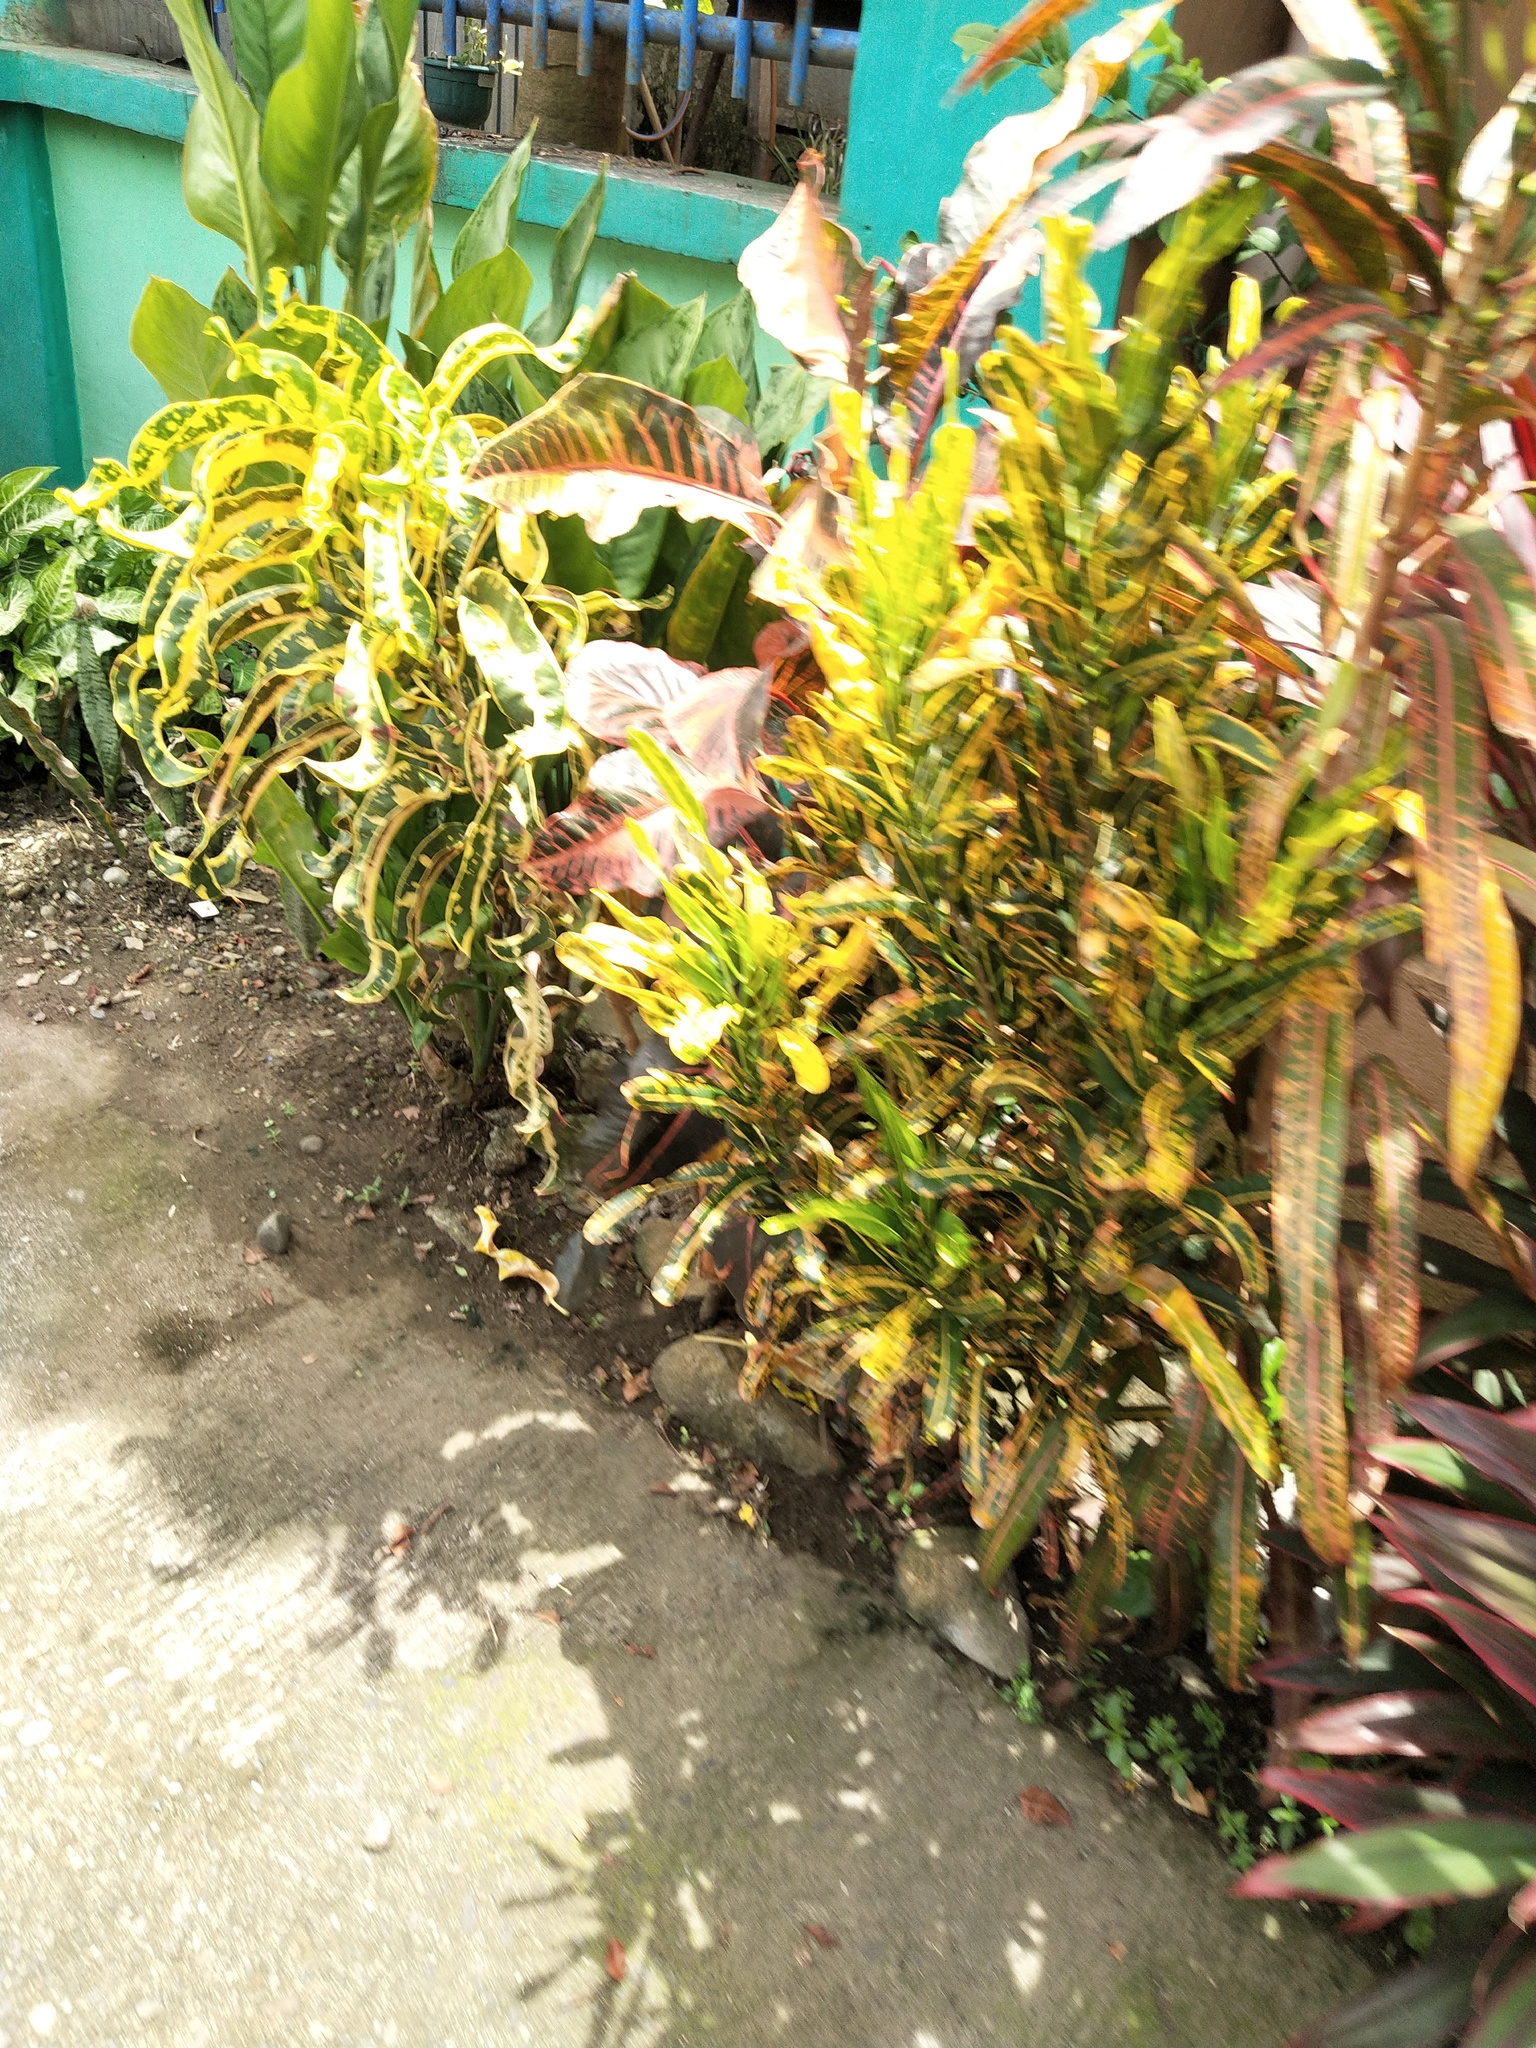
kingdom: Plantae
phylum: Tracheophyta
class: Magnoliopsida
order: Malpighiales
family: Euphorbiaceae
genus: Codiaeum
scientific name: Codiaeum variegatum
